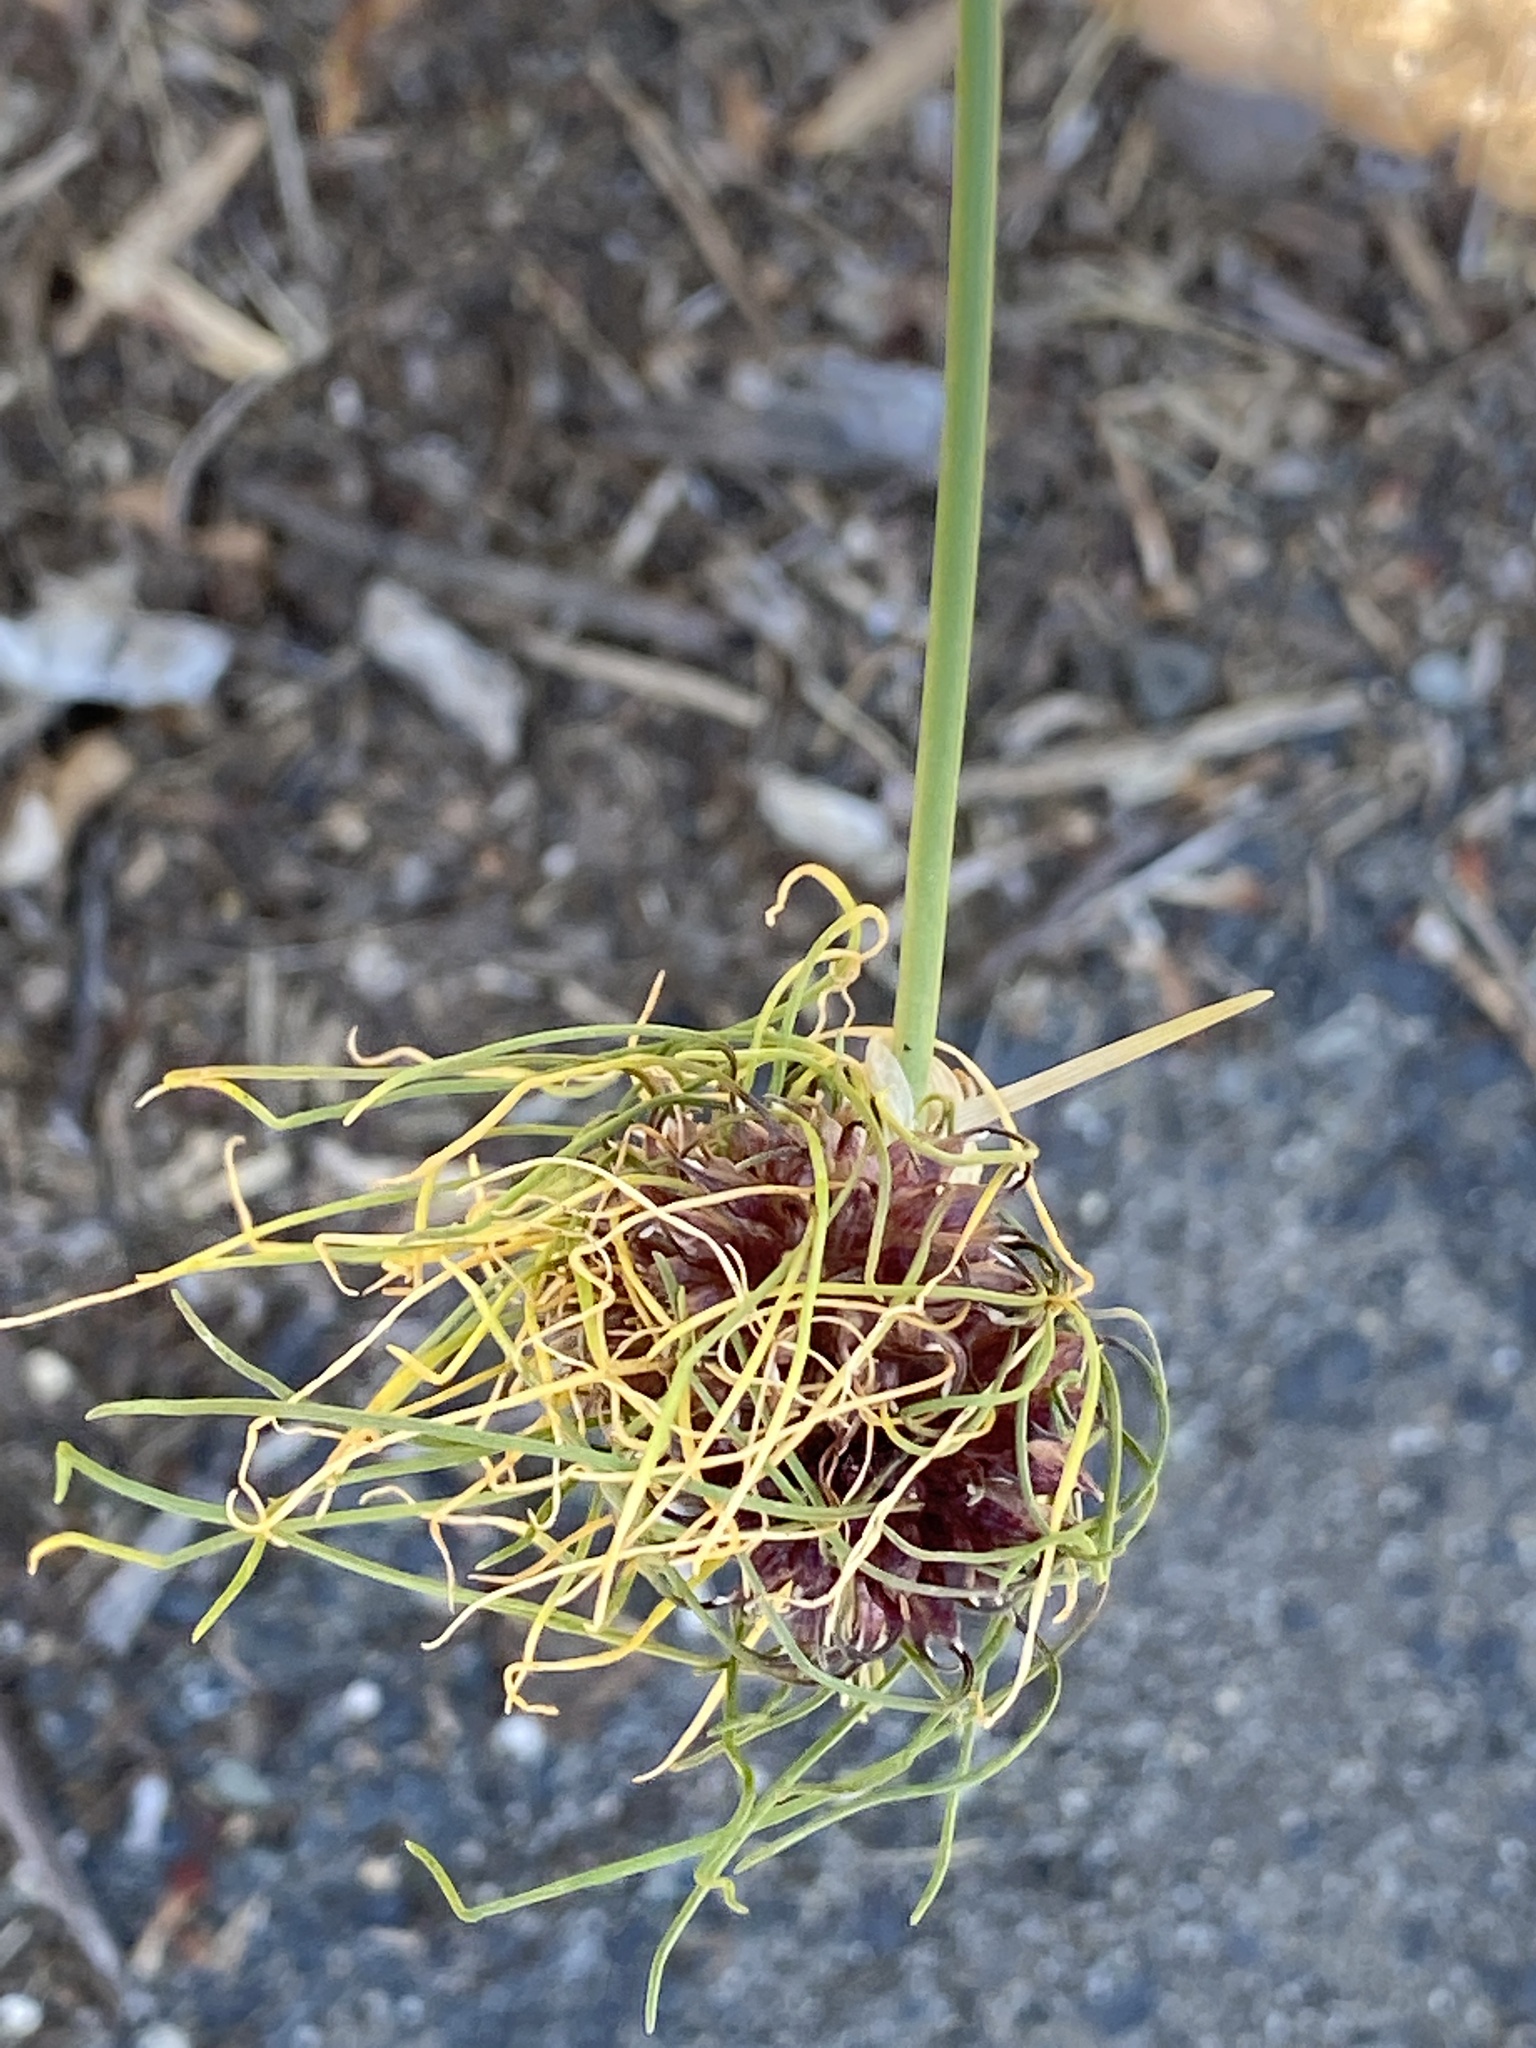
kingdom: Plantae
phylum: Tracheophyta
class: Liliopsida
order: Asparagales
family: Amaryllidaceae
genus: Allium
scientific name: Allium vineale
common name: Crow garlic
